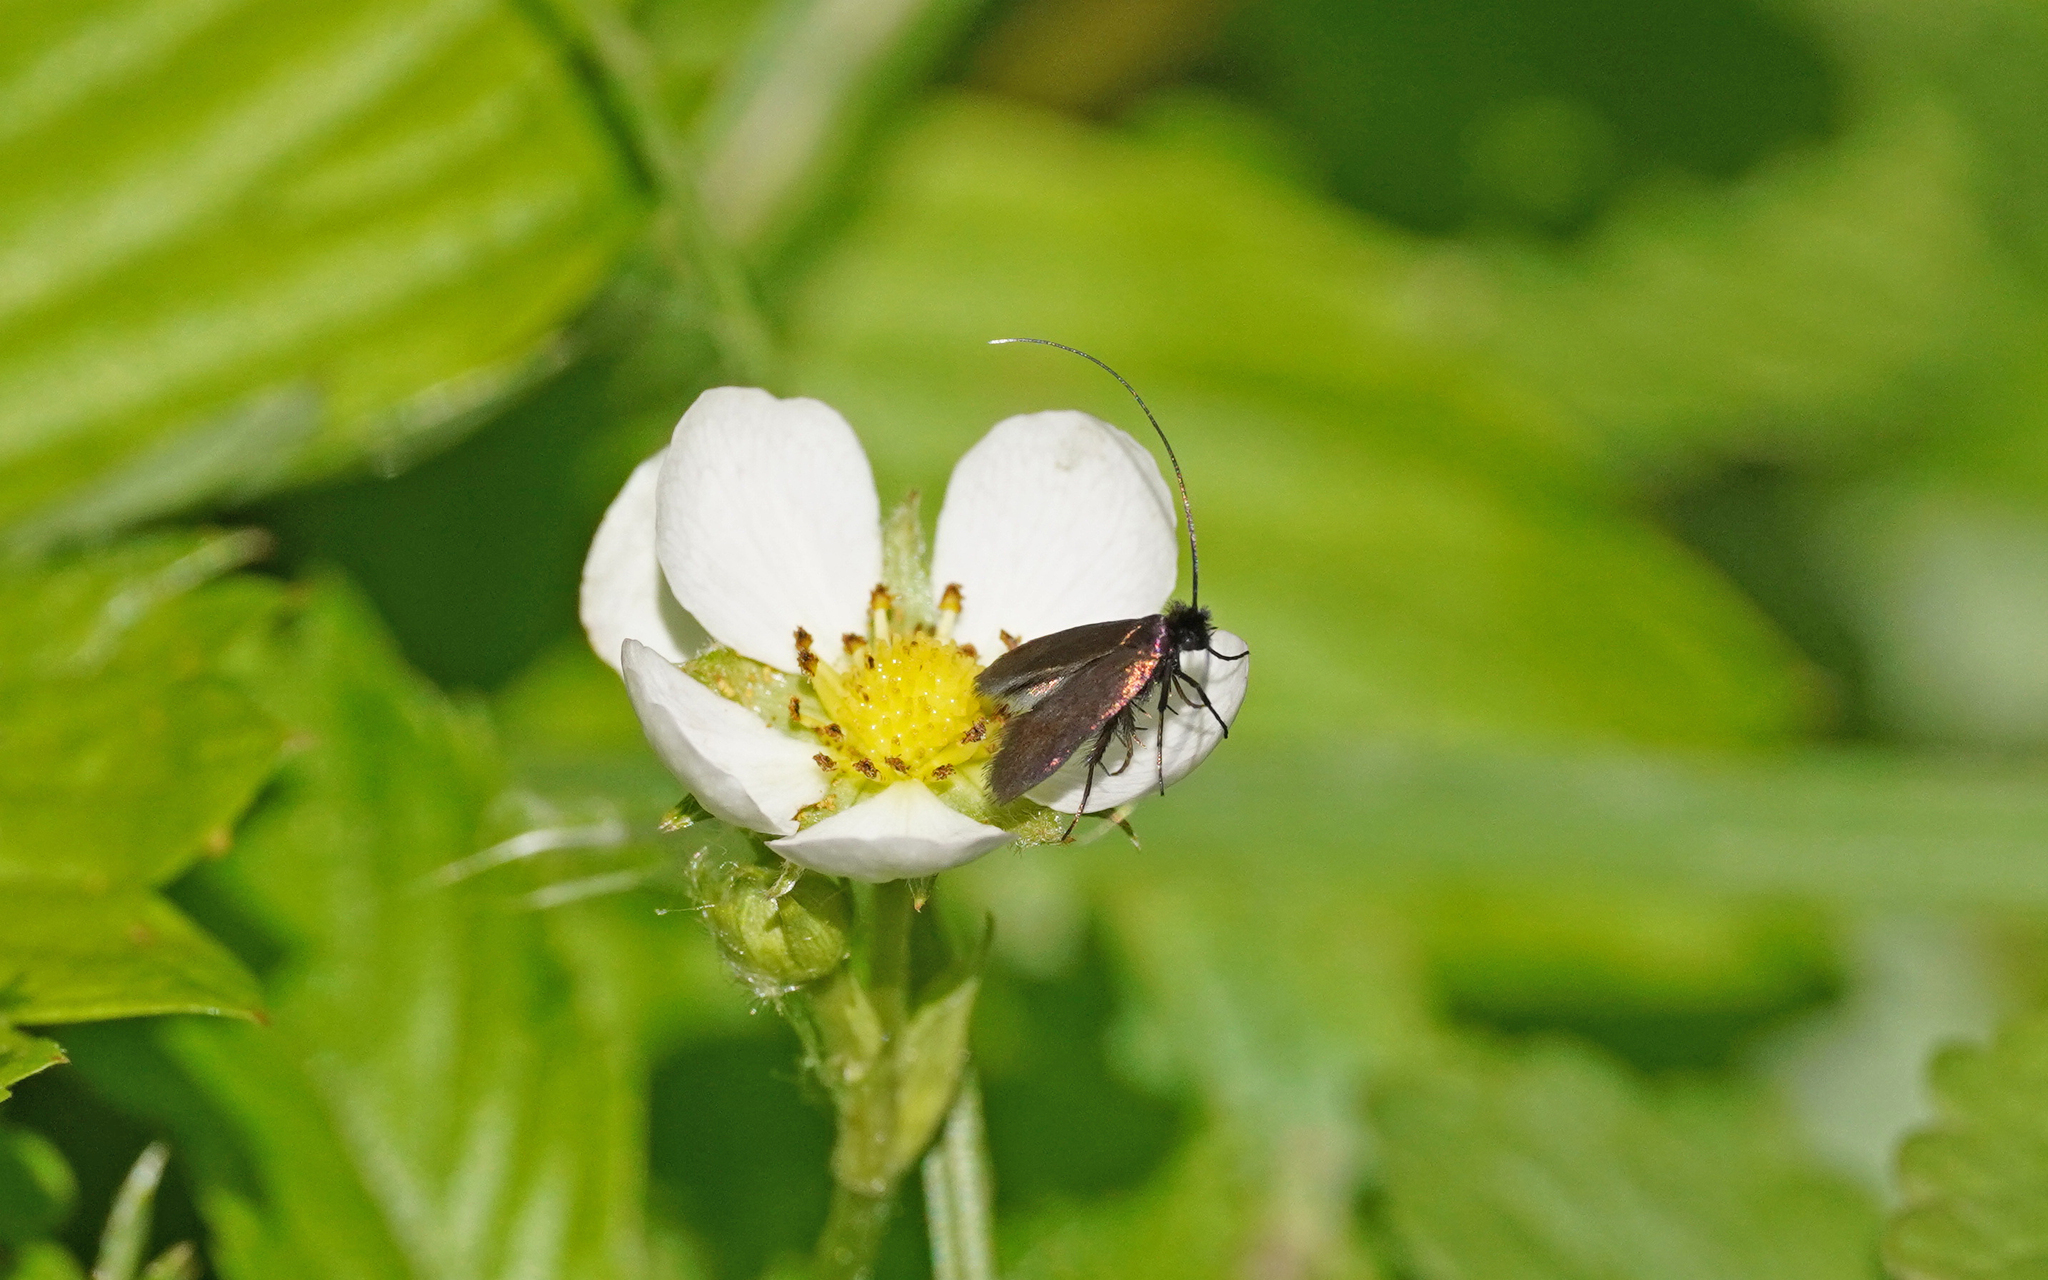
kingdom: Animalia
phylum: Arthropoda
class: Insecta
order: Lepidoptera
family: Adelidae
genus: Cauchas
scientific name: Cauchas fibulella
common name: Little long-horn
